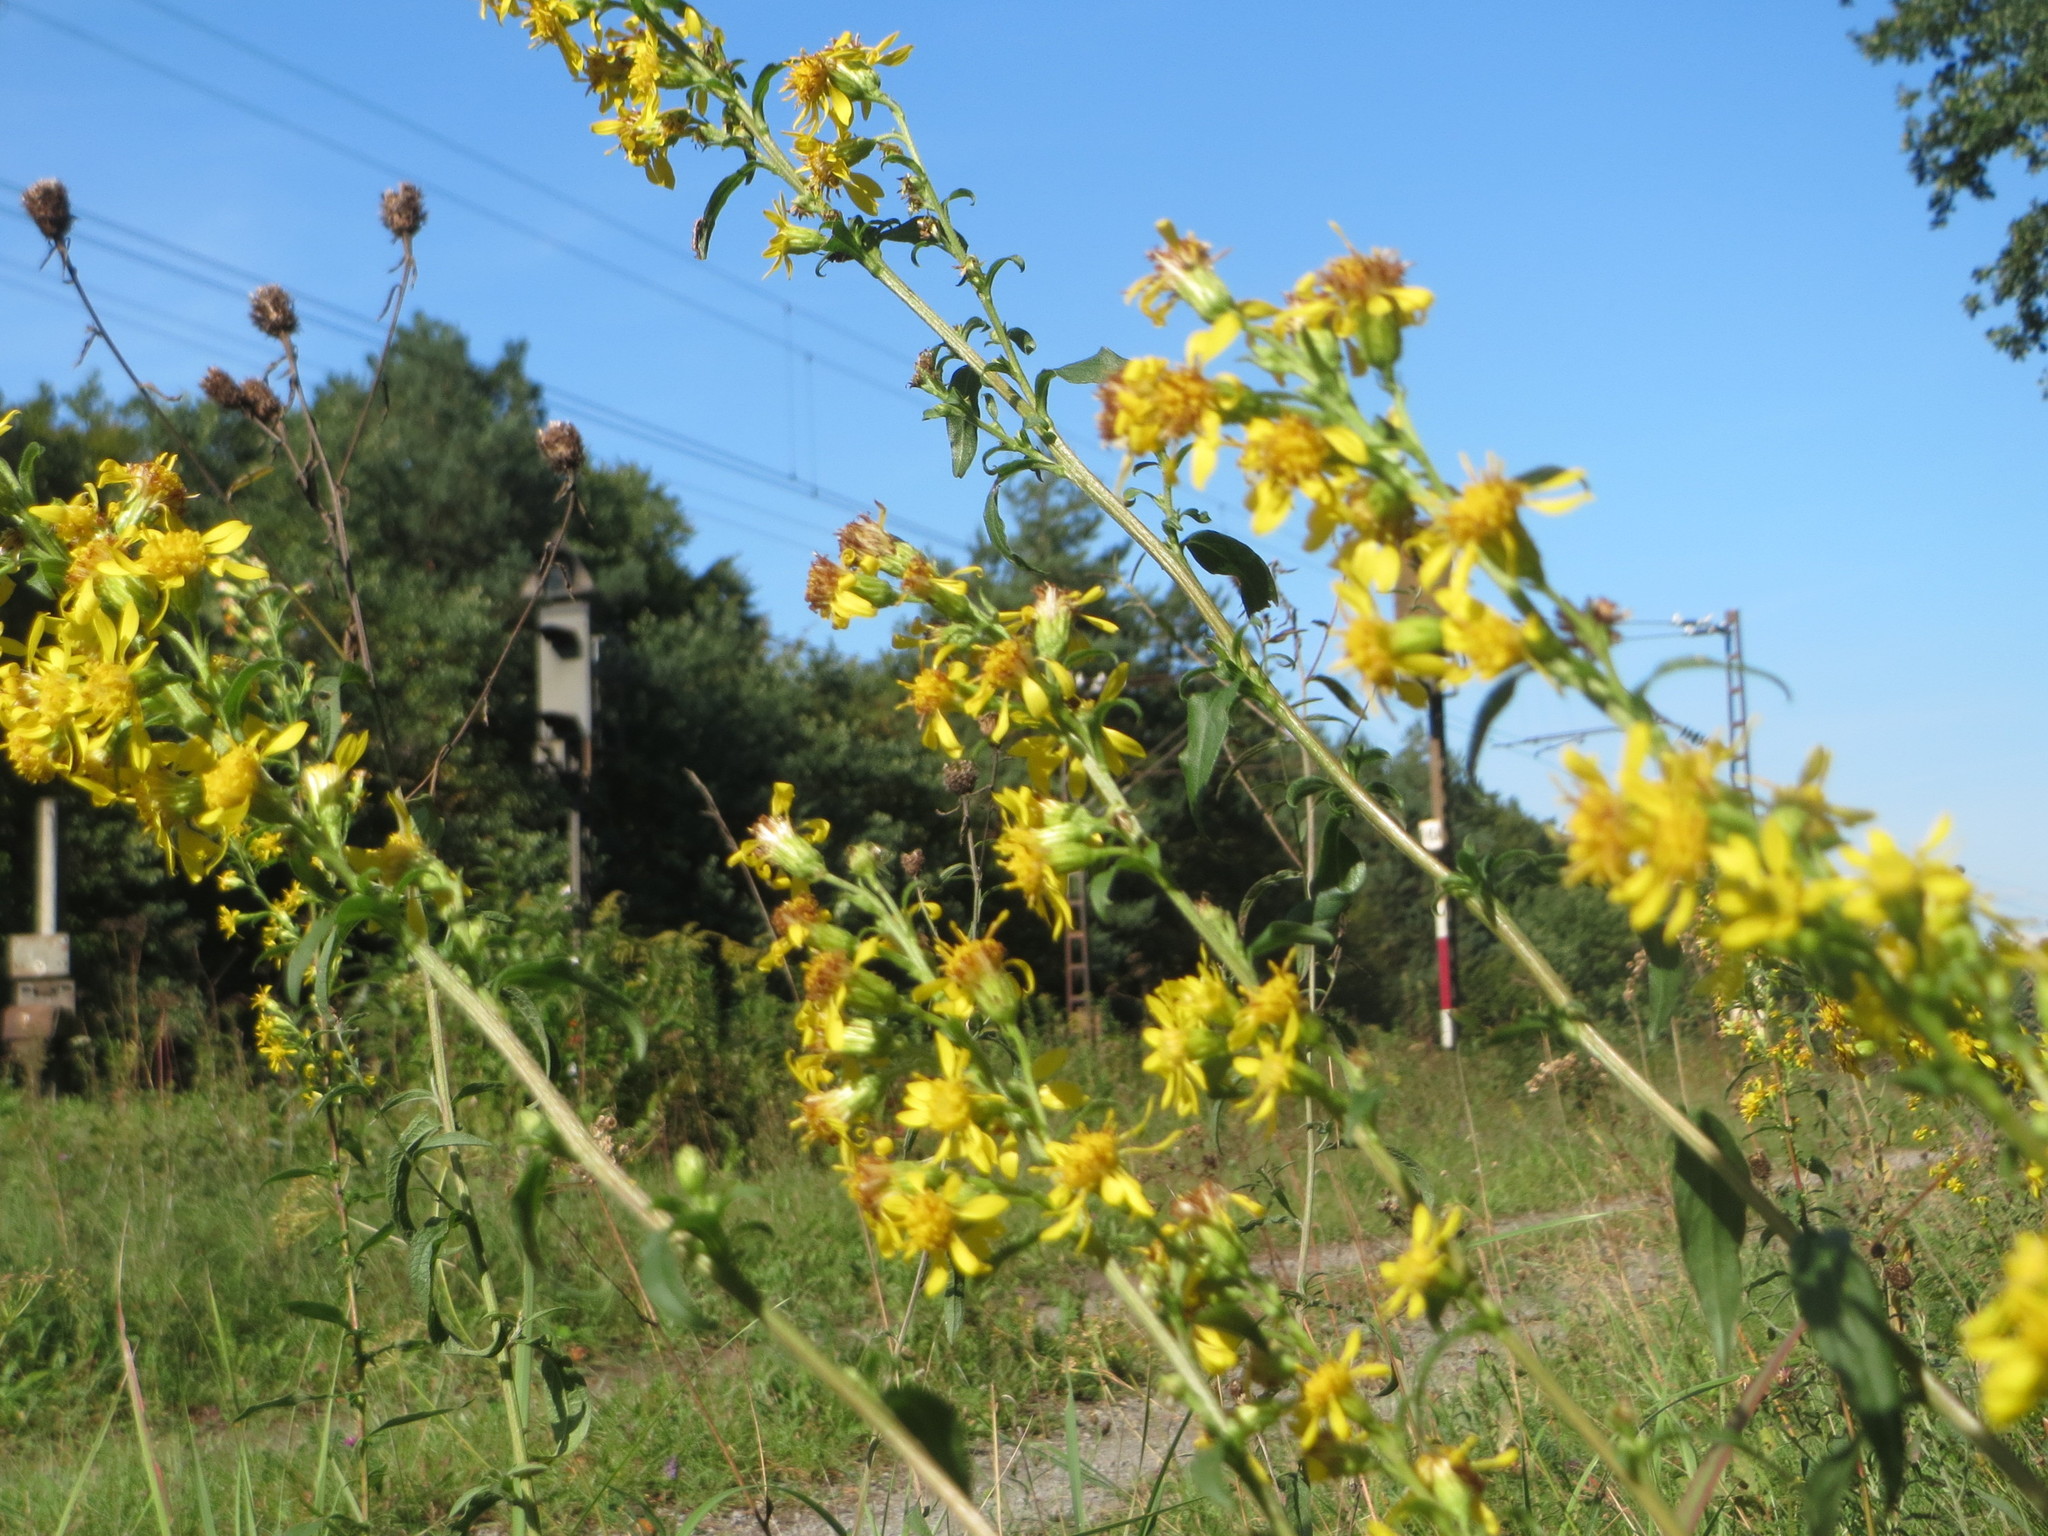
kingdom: Plantae
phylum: Tracheophyta
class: Magnoliopsida
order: Asterales
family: Asteraceae
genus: Solidago
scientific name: Solidago virgaurea
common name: Goldenrod
